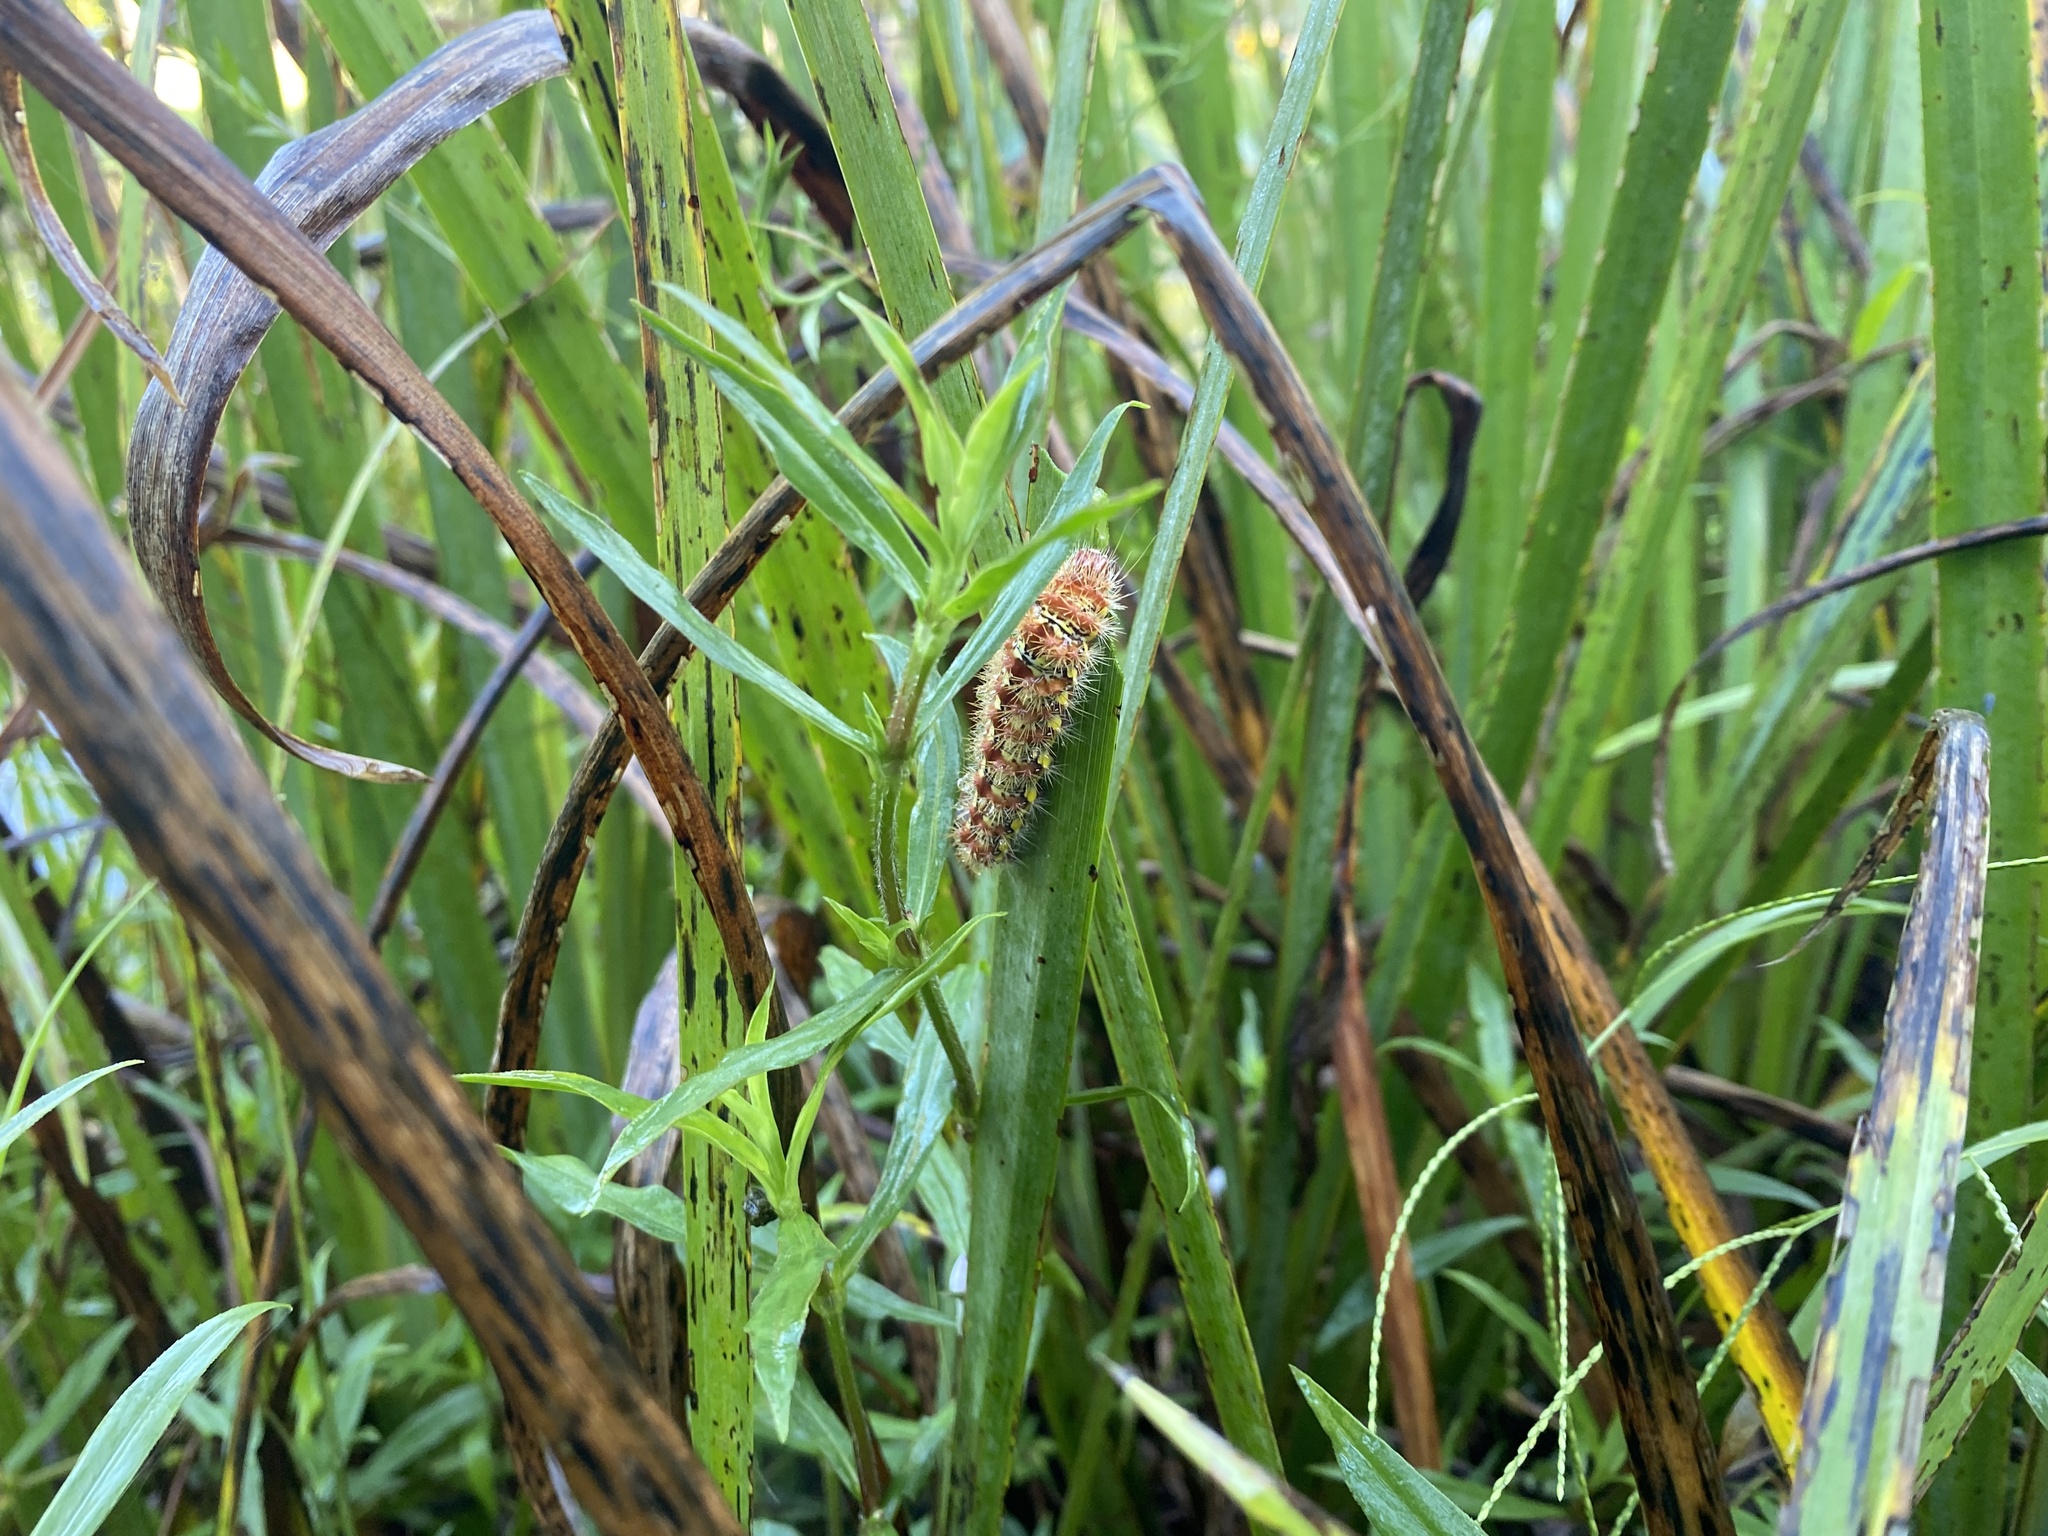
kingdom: Animalia
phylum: Arthropoda
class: Insecta
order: Lepidoptera
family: Noctuidae
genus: Acronicta
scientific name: Acronicta oblinita
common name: Smeared dagger
